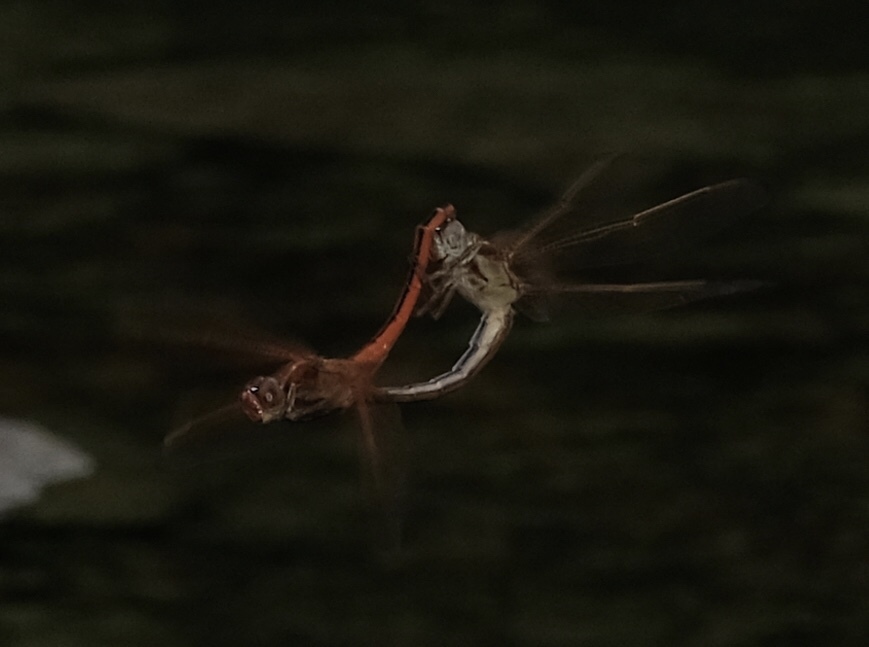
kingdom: Animalia
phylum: Arthropoda
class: Insecta
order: Odonata
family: Libellulidae
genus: Libellula
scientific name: Libellula needhami
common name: Needham's skimmer
